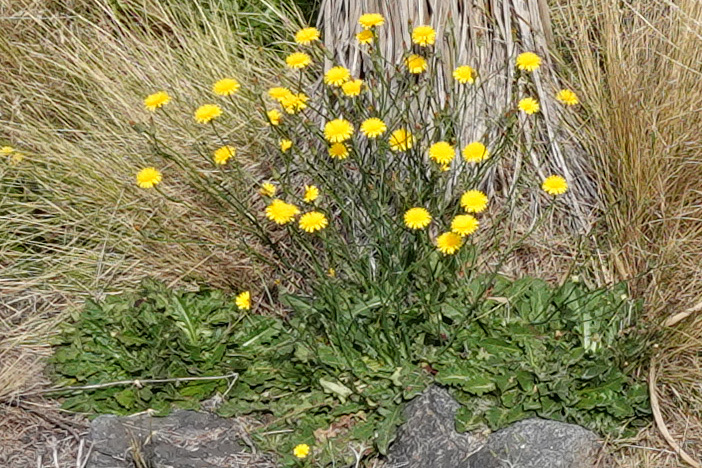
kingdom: Plantae
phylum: Tracheophyta
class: Magnoliopsida
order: Asterales
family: Asteraceae
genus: Hypochaeris
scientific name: Hypochaeris radicata
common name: Flatweed
